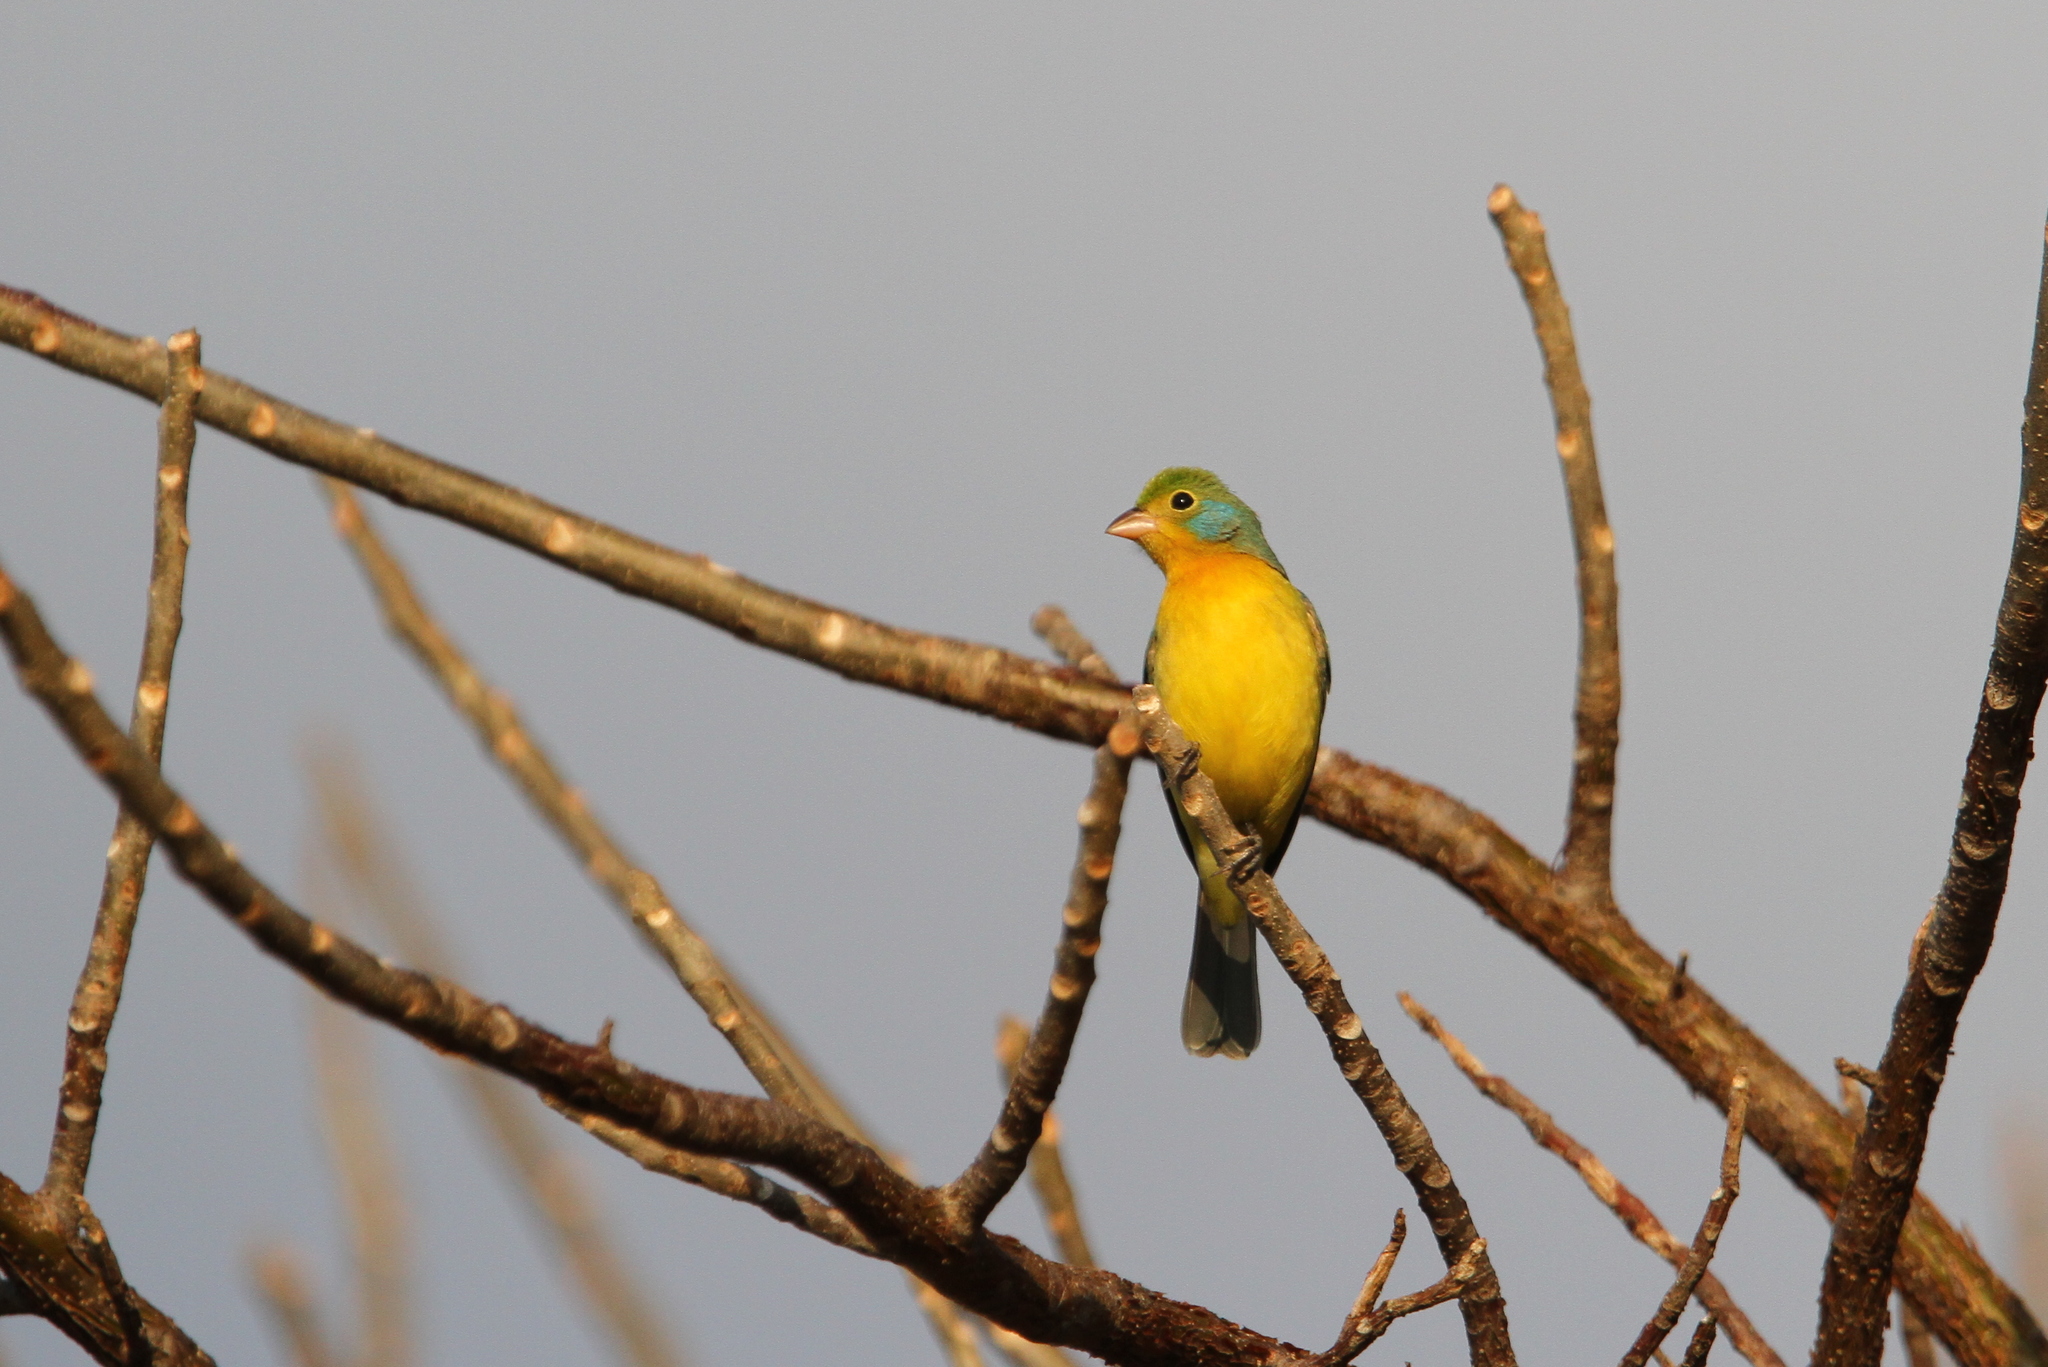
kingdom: Animalia
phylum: Chordata
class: Aves
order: Passeriformes
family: Cardinalidae
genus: Passerina
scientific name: Passerina leclancherii
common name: Orange-breasted bunting
